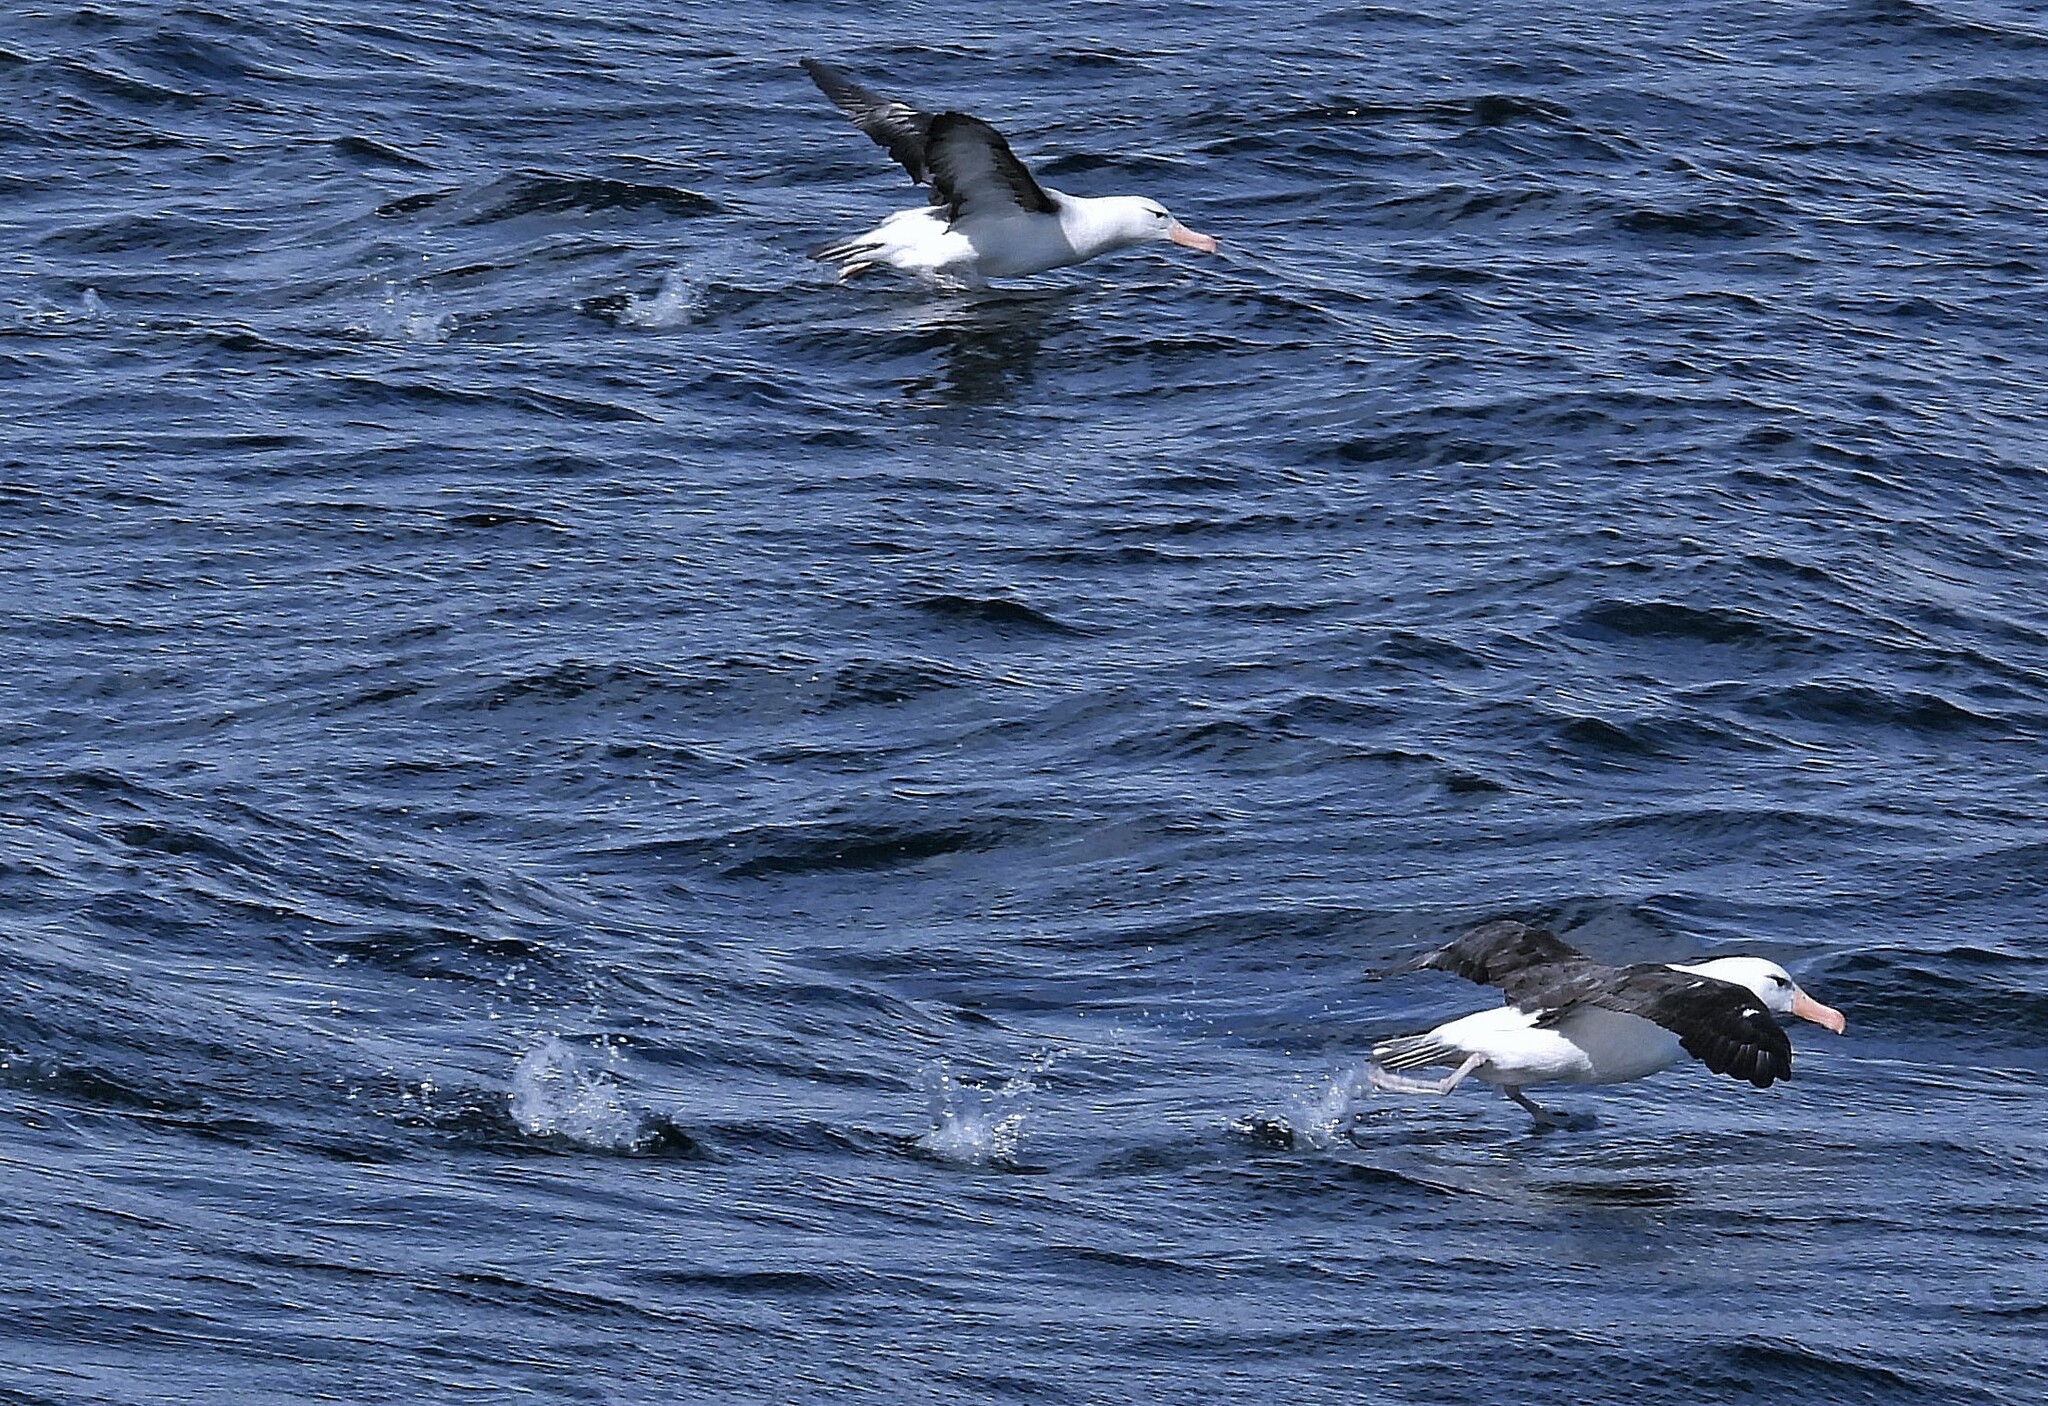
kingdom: Animalia
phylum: Chordata
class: Aves
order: Procellariiformes
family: Diomedeidae
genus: Thalassarche
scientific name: Thalassarche melanophris
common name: Black-browed albatross
